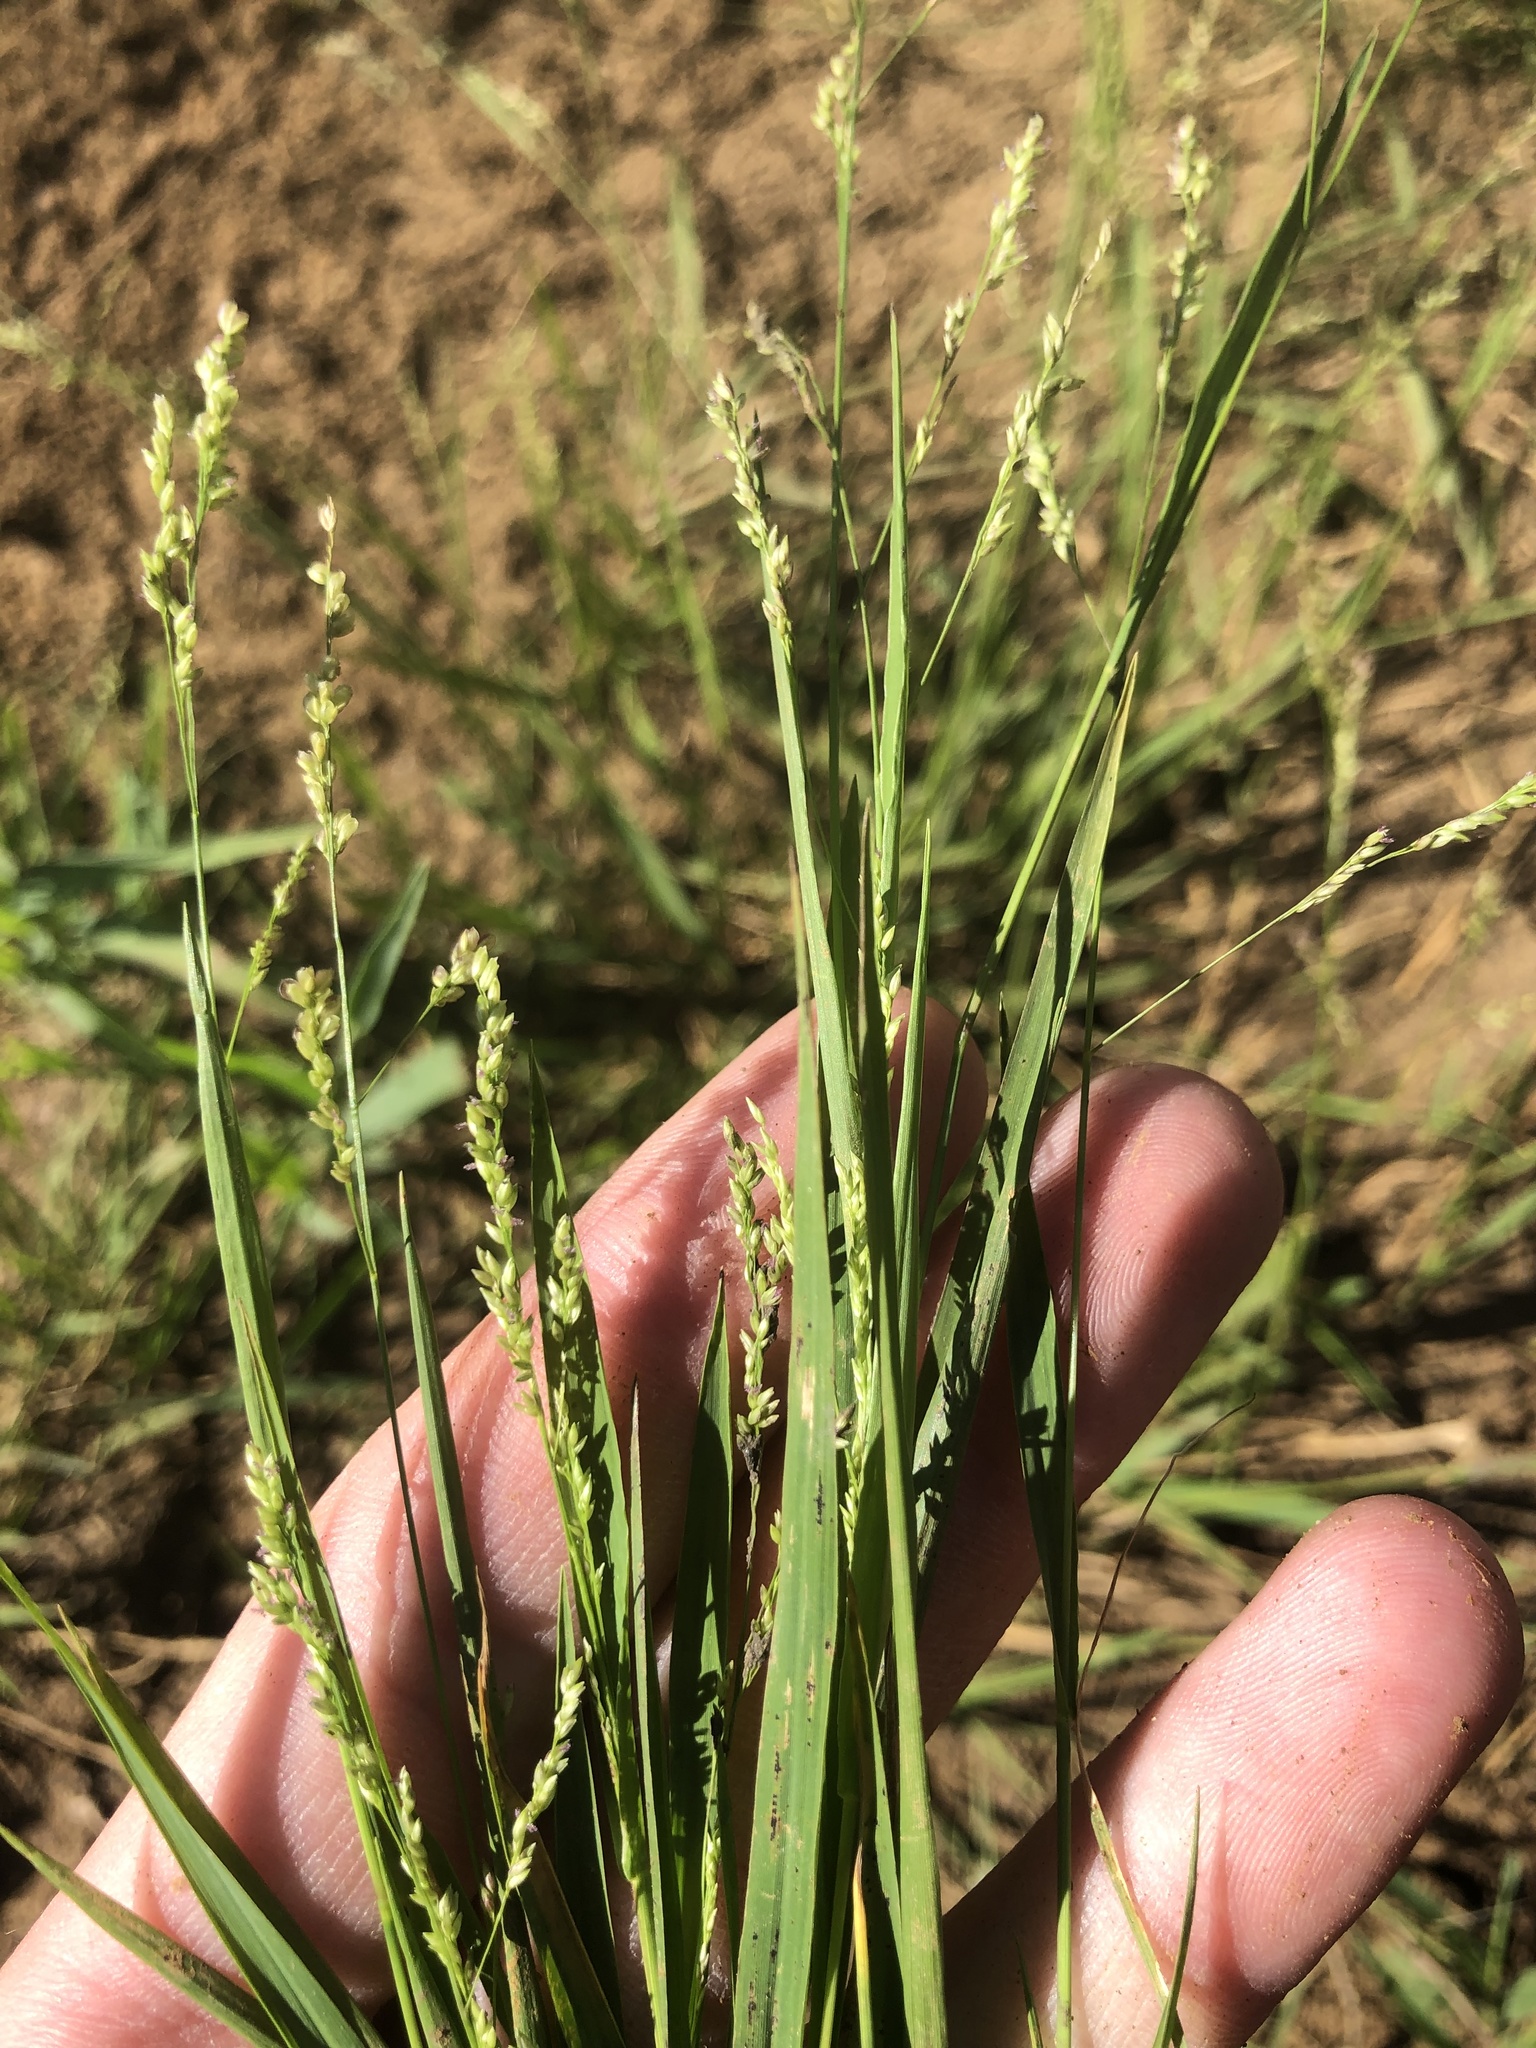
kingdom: Plantae
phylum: Tracheophyta
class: Liliopsida
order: Poales
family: Poaceae
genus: Steinchisma
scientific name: Steinchisma hians
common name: Gaping panic grass
